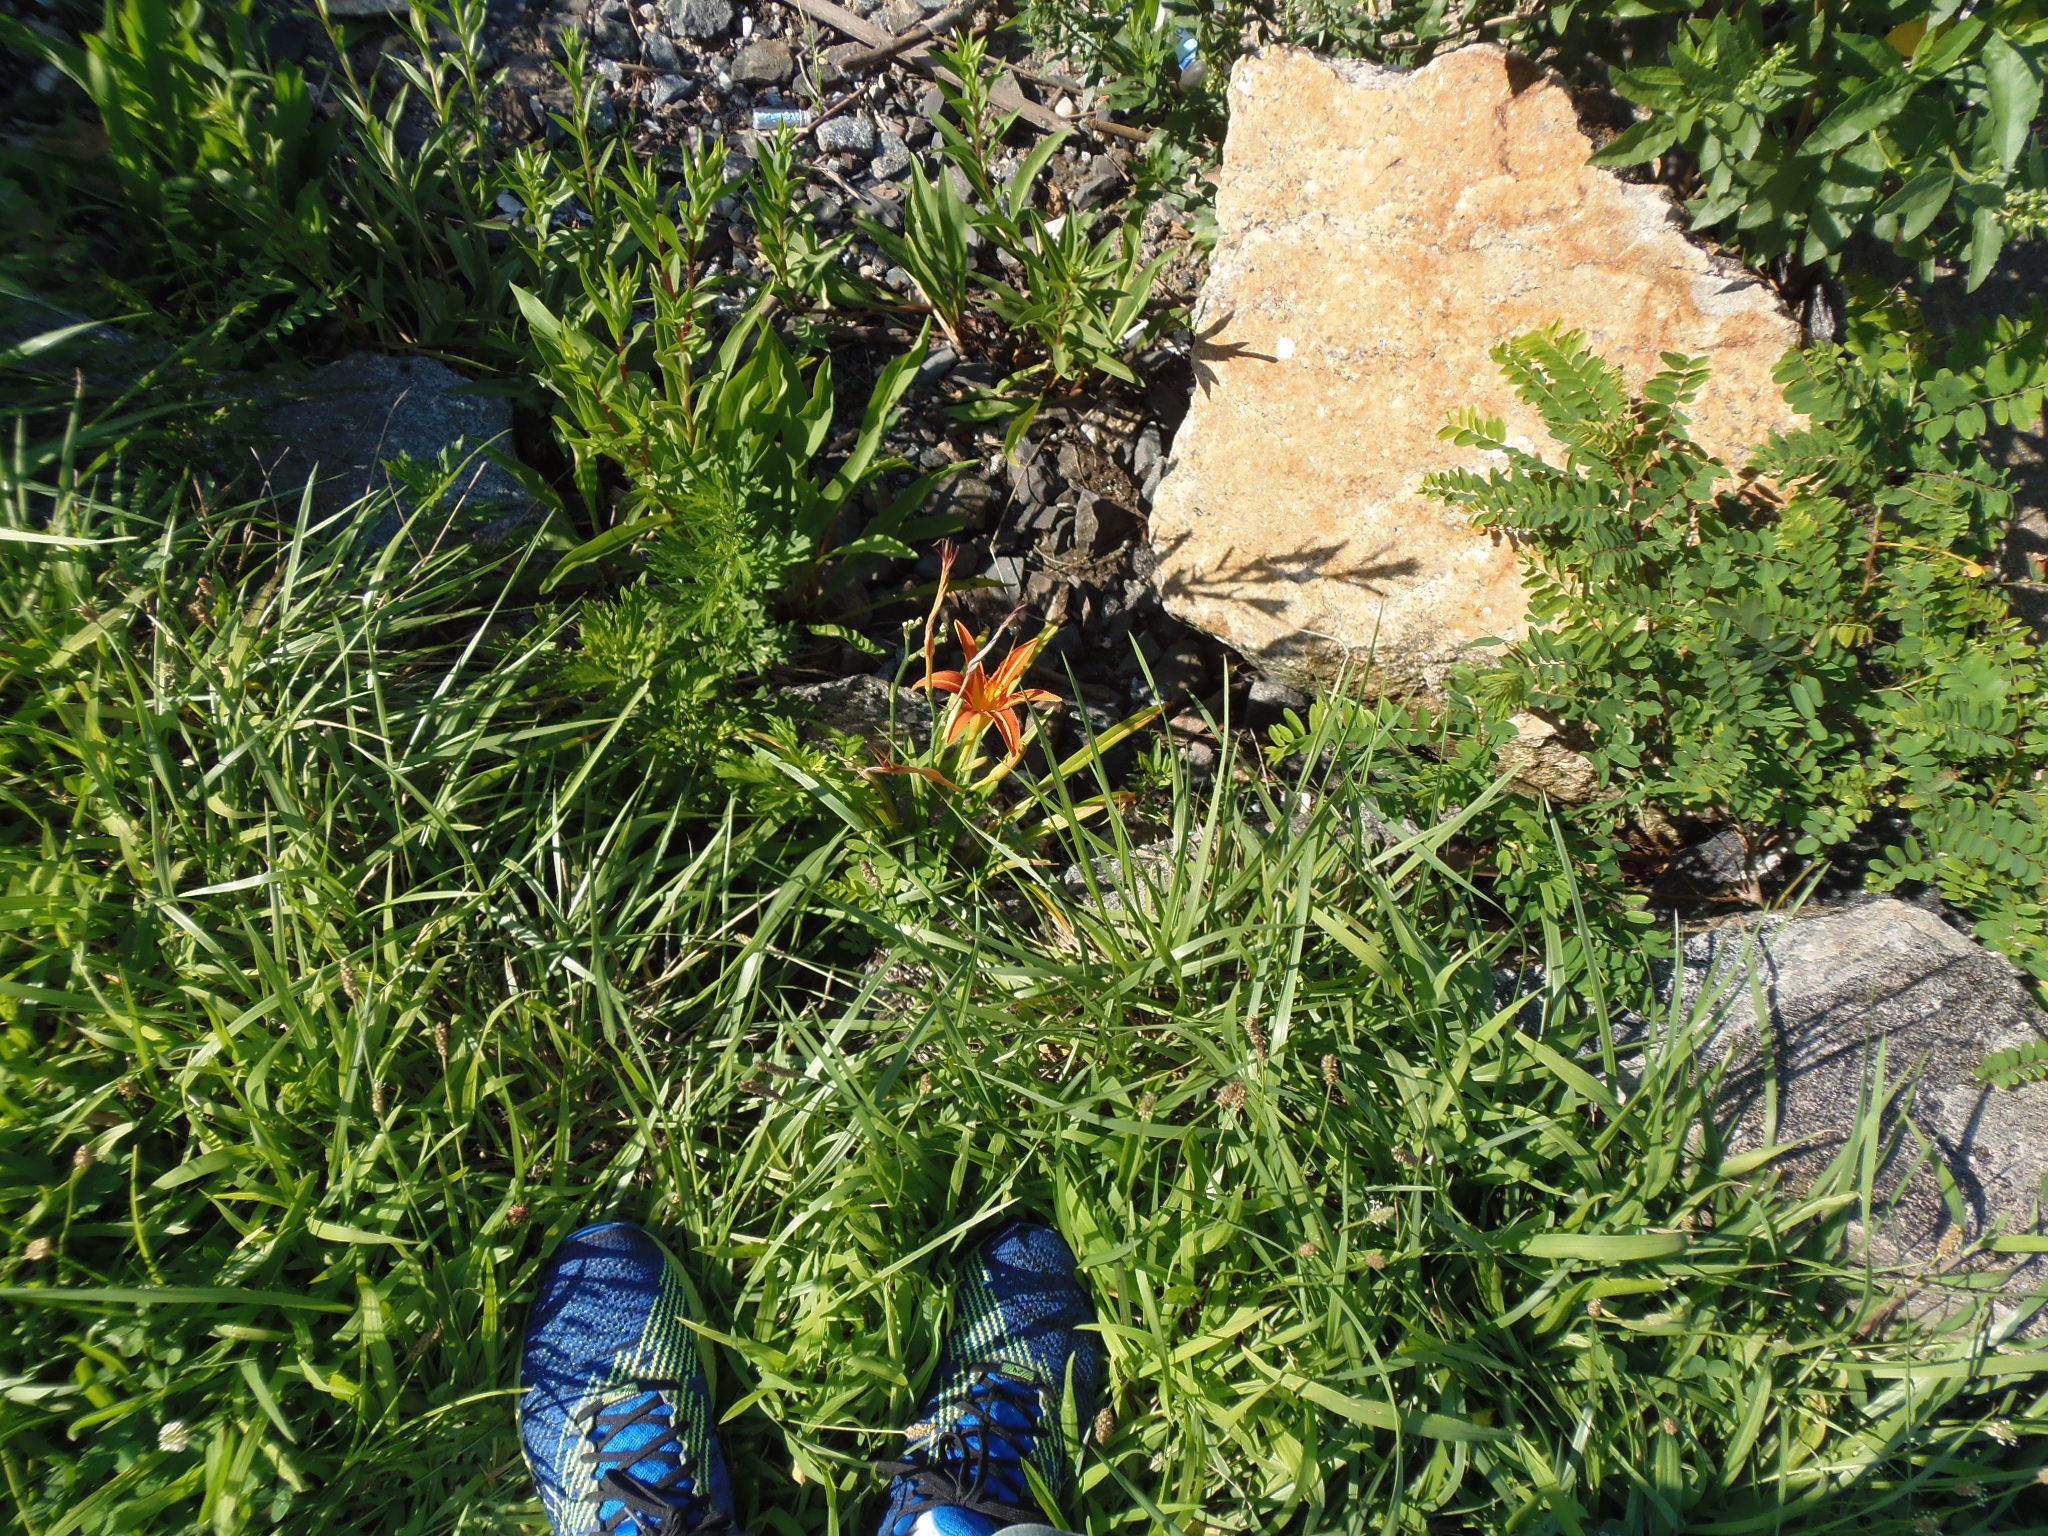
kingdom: Plantae
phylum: Tracheophyta
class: Liliopsida
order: Asparagales
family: Asphodelaceae
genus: Hemerocallis
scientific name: Hemerocallis fulva
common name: Orange day-lily
